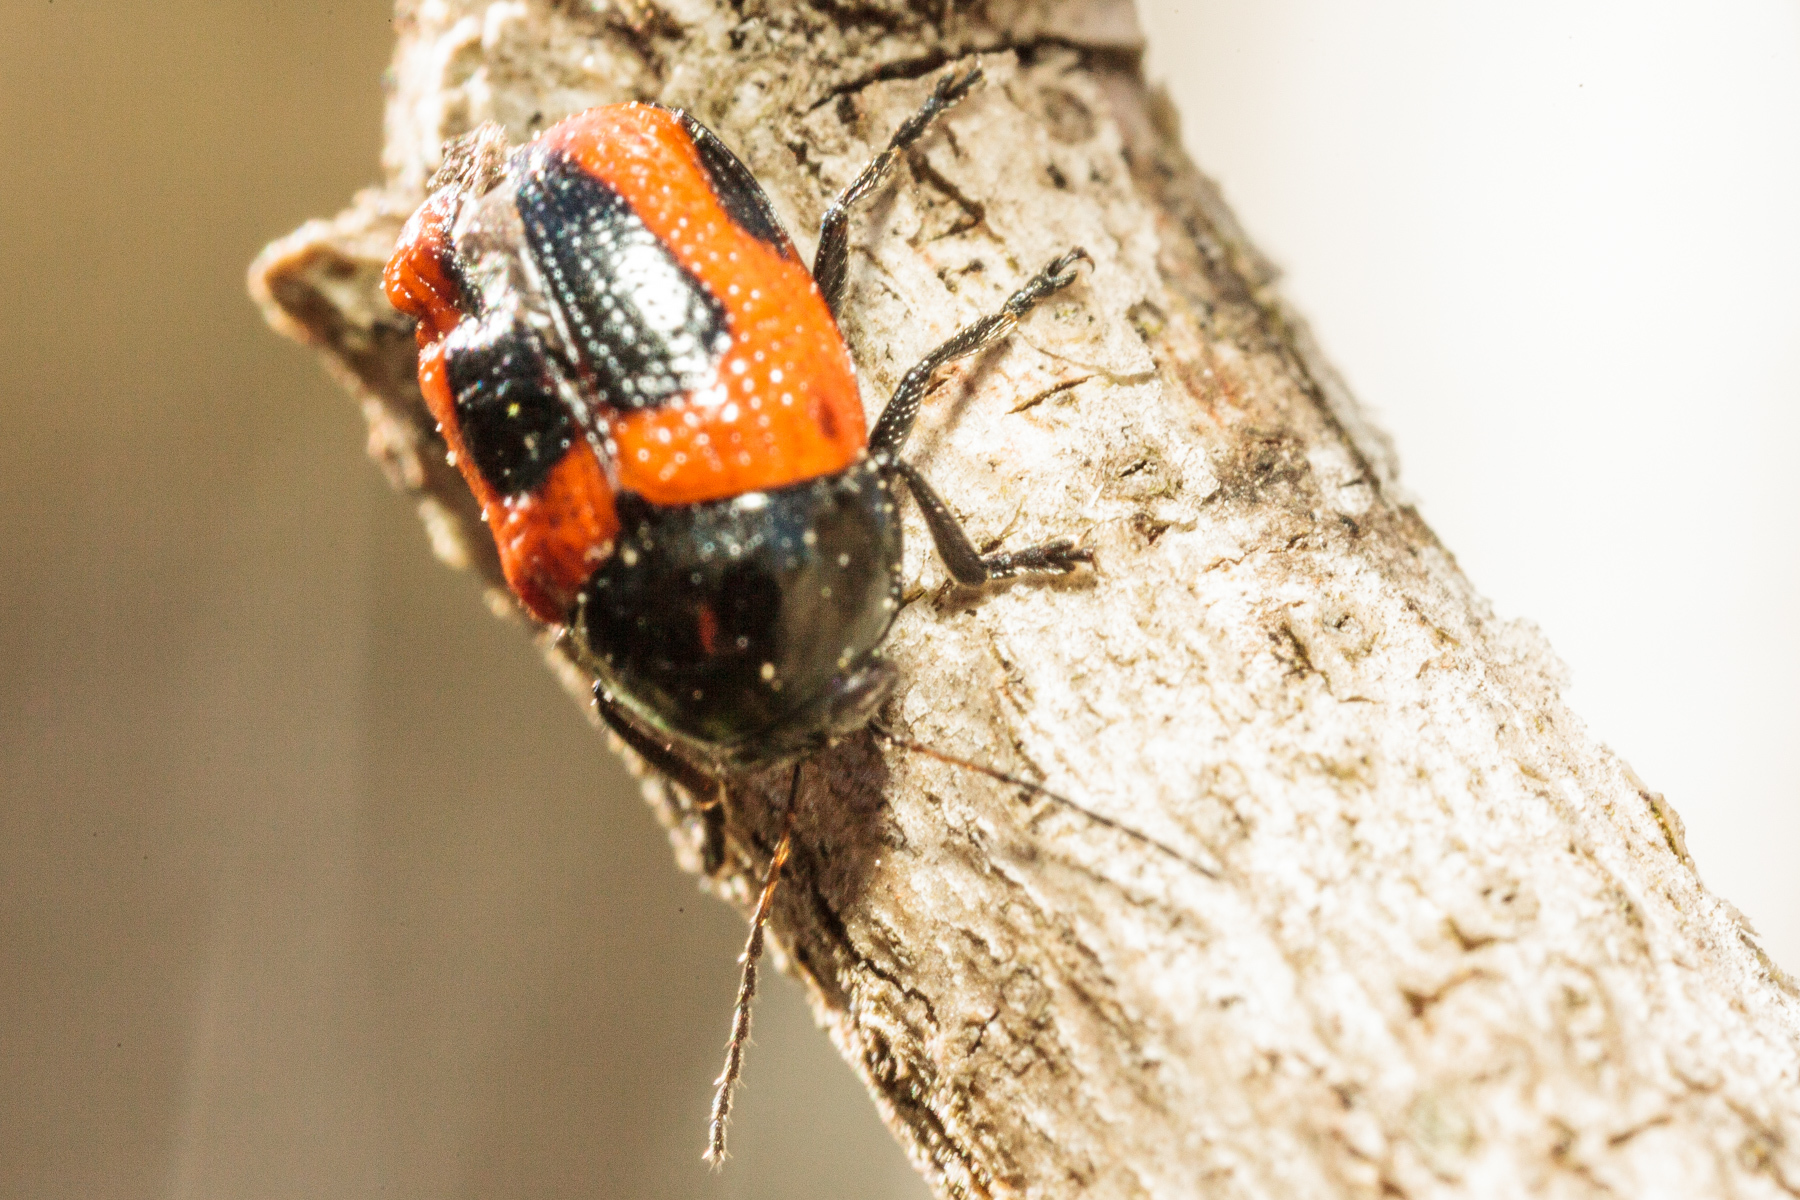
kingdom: Animalia
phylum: Arthropoda
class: Insecta
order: Coleoptera
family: Chrysomelidae
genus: Cryptocephalus
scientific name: Cryptocephalus notatus
